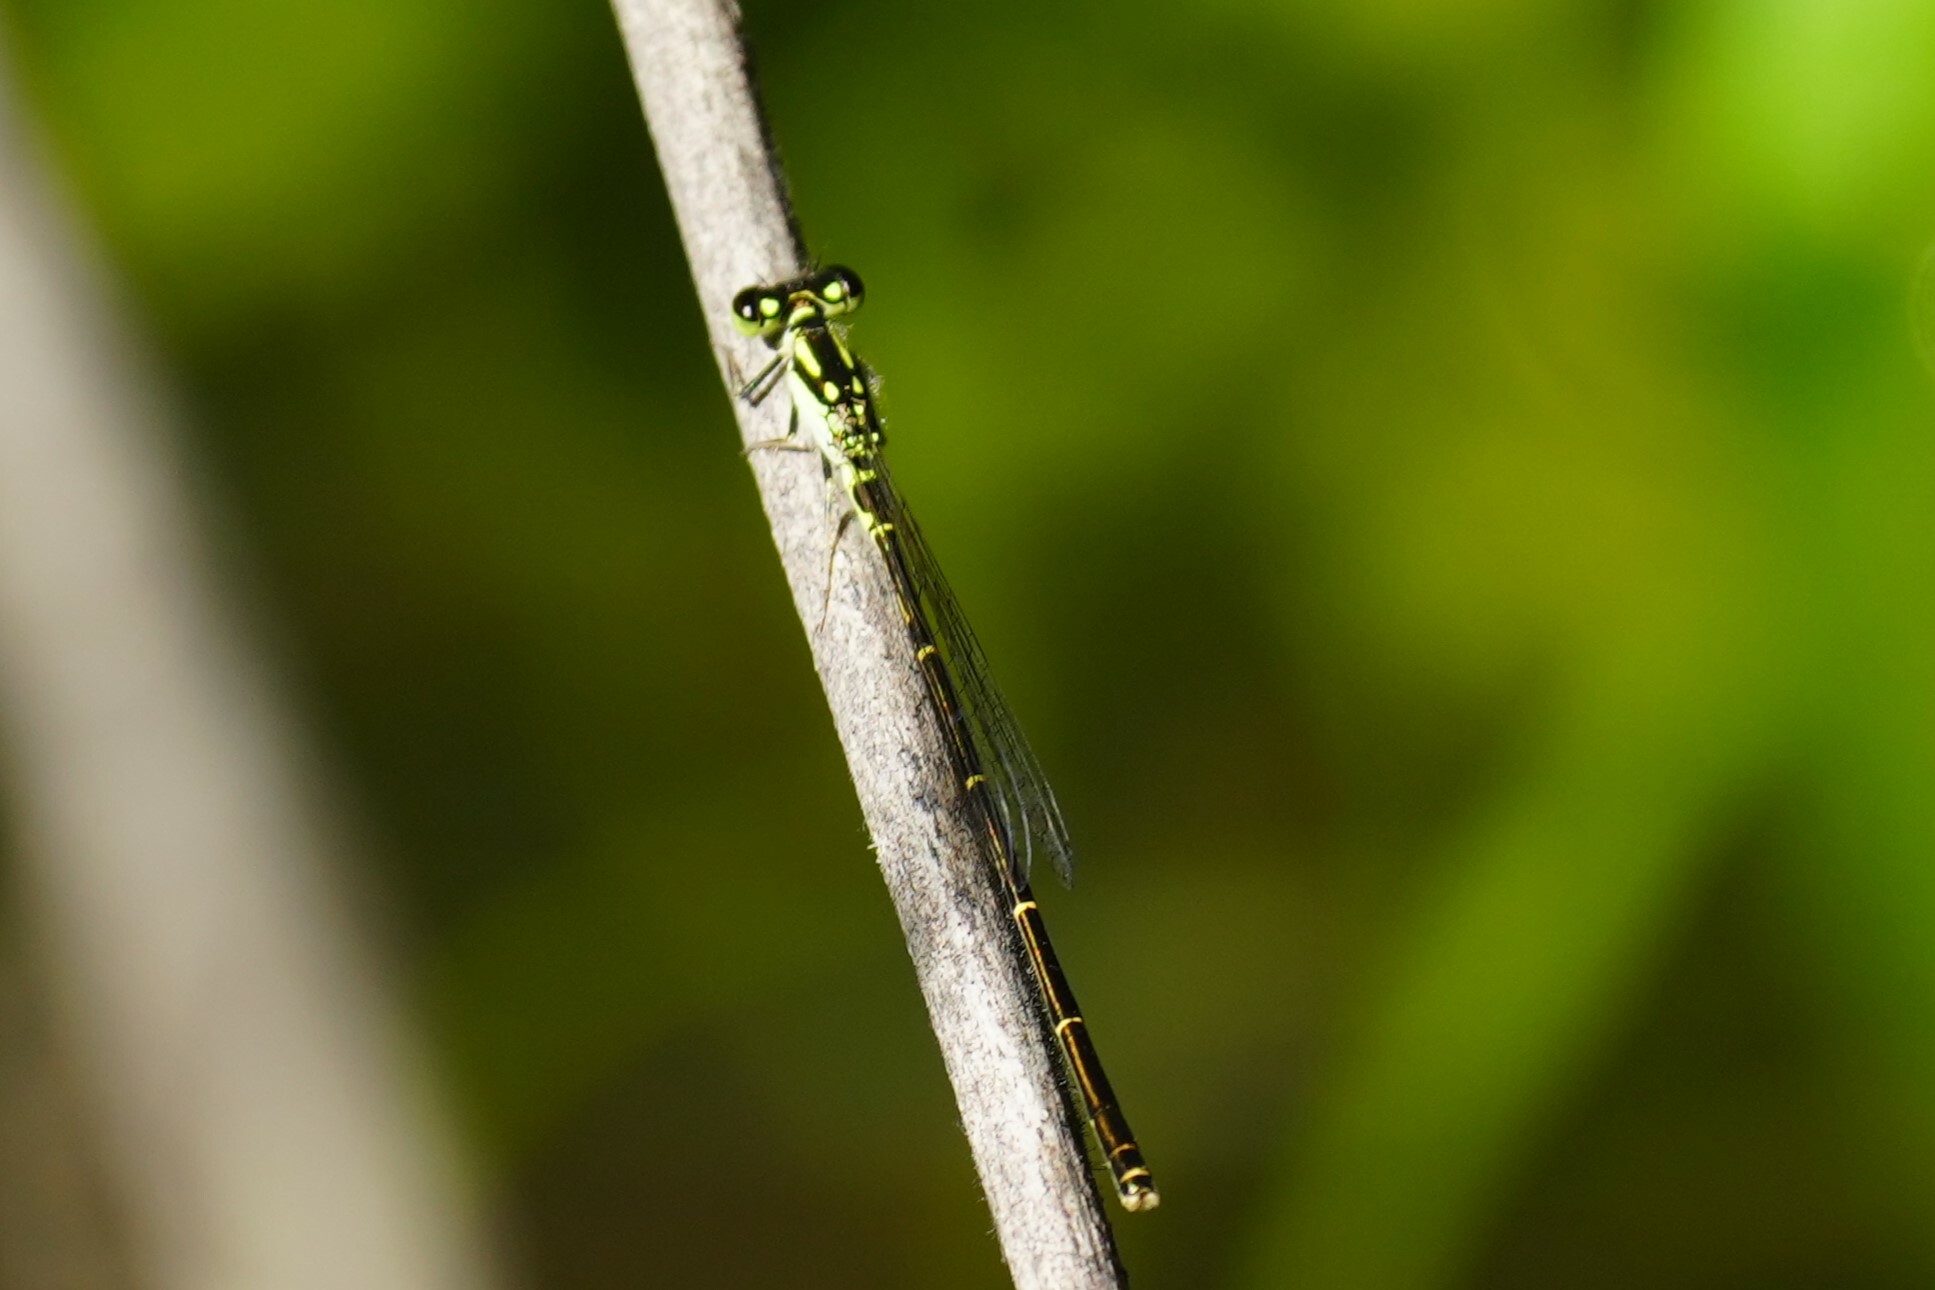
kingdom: Animalia
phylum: Arthropoda
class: Insecta
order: Odonata
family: Coenagrionidae
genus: Ischnura
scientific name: Ischnura posita
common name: Fragile forktail
